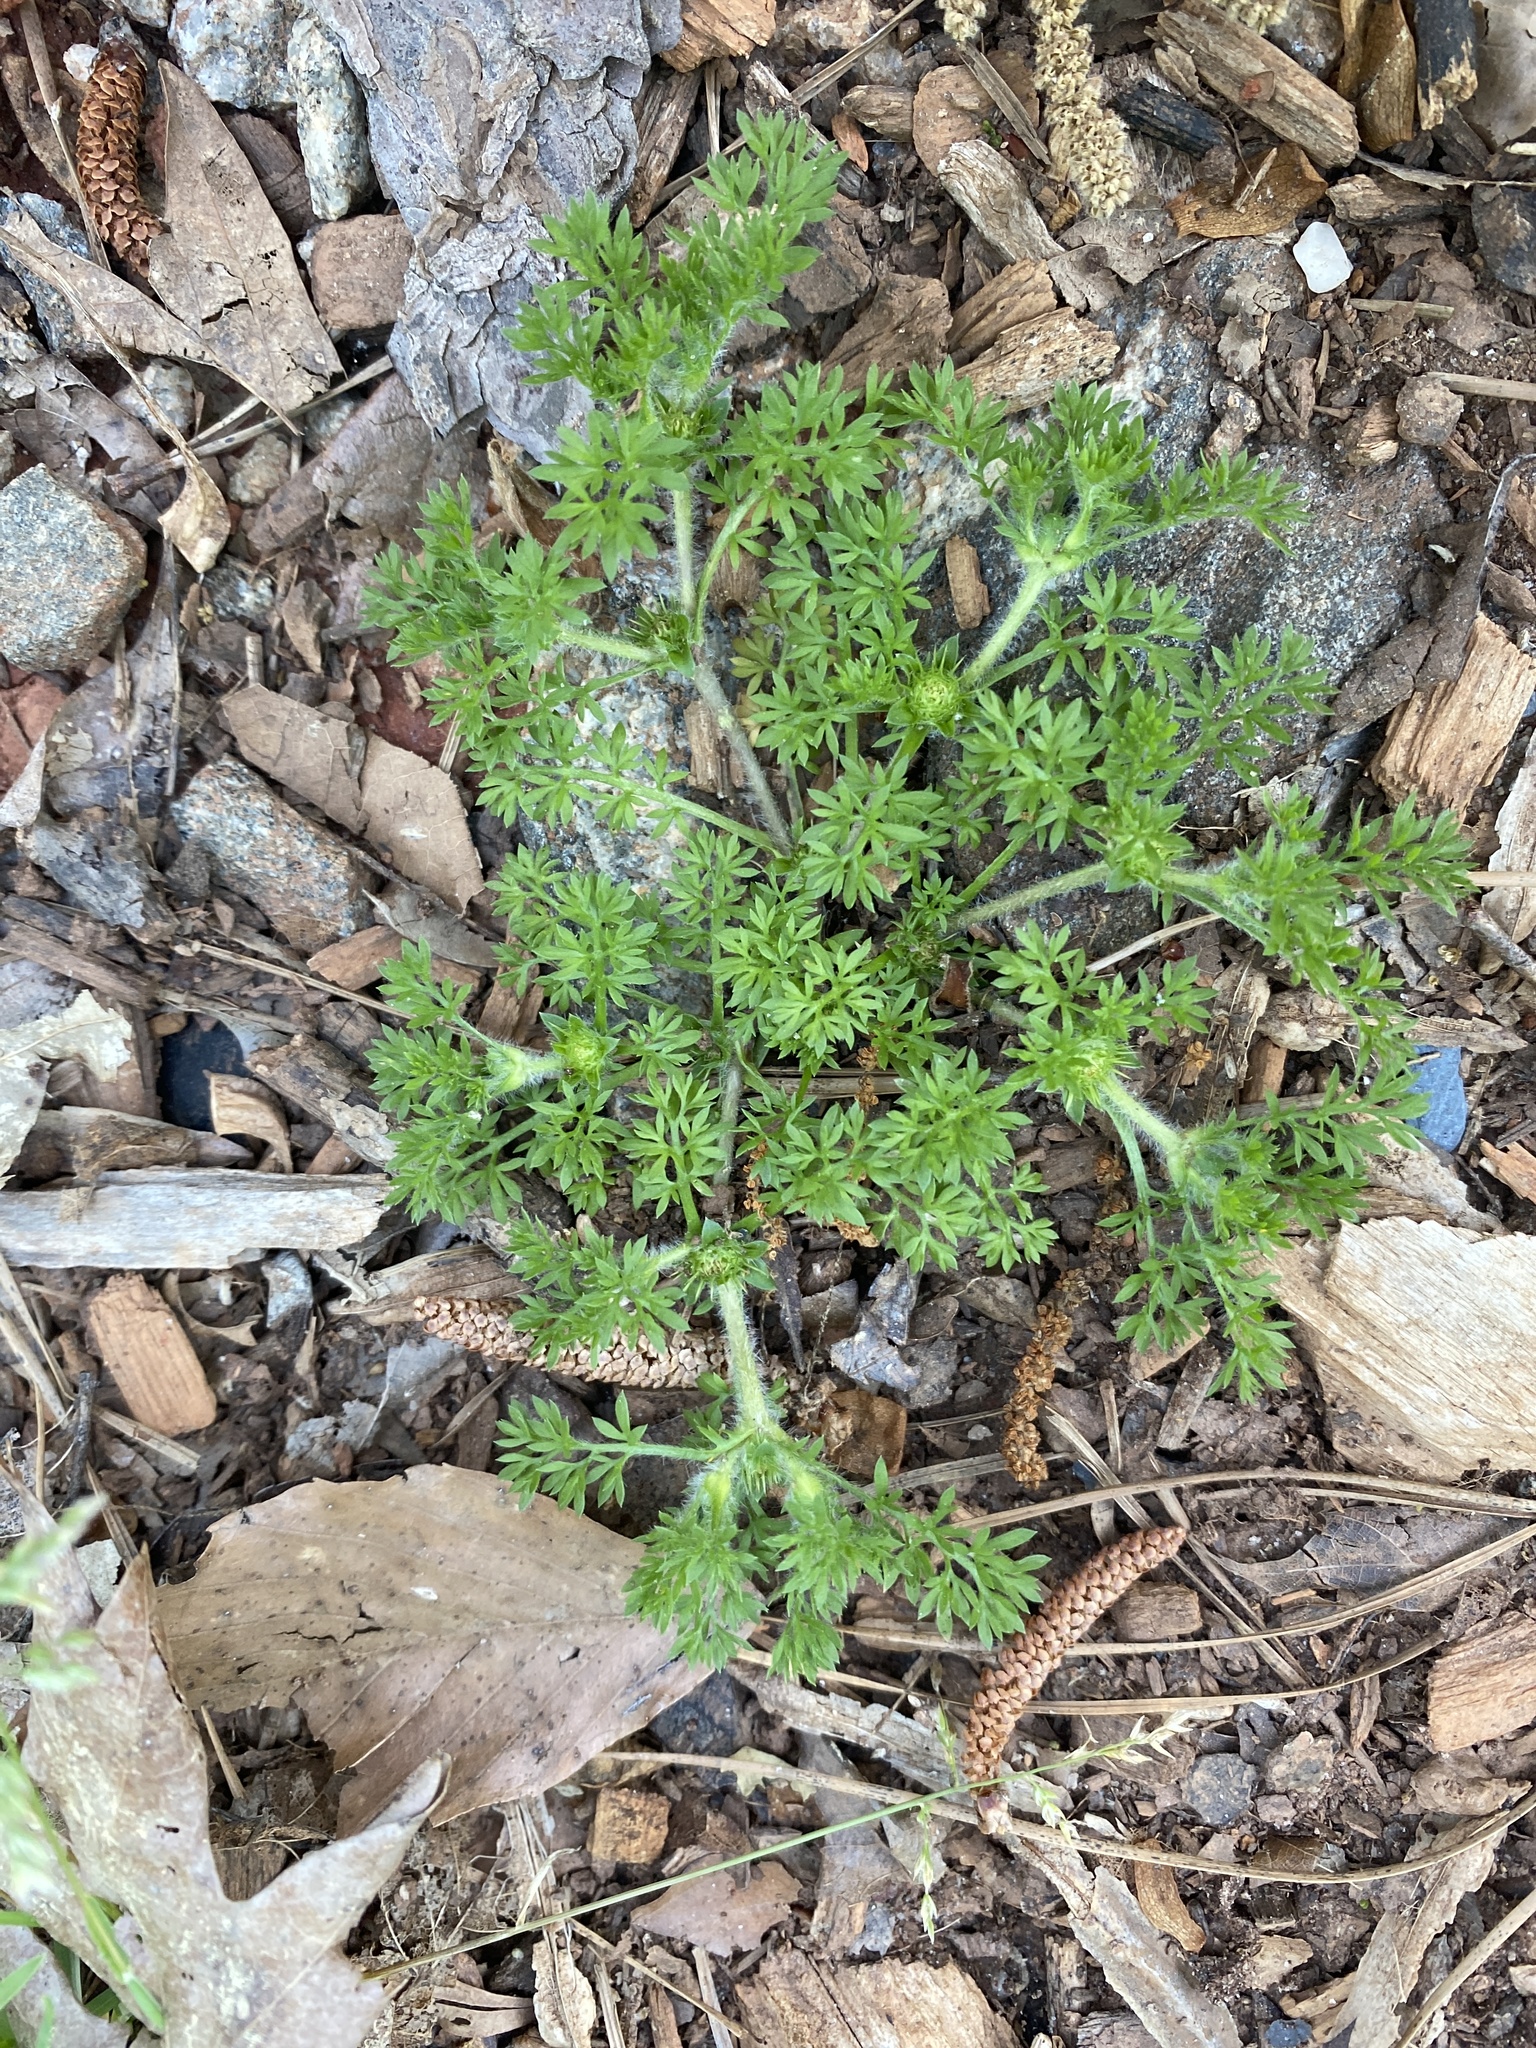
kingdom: Plantae
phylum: Tracheophyta
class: Magnoliopsida
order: Asterales
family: Asteraceae
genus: Soliva
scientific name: Soliva sessilis
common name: Field burrweed
